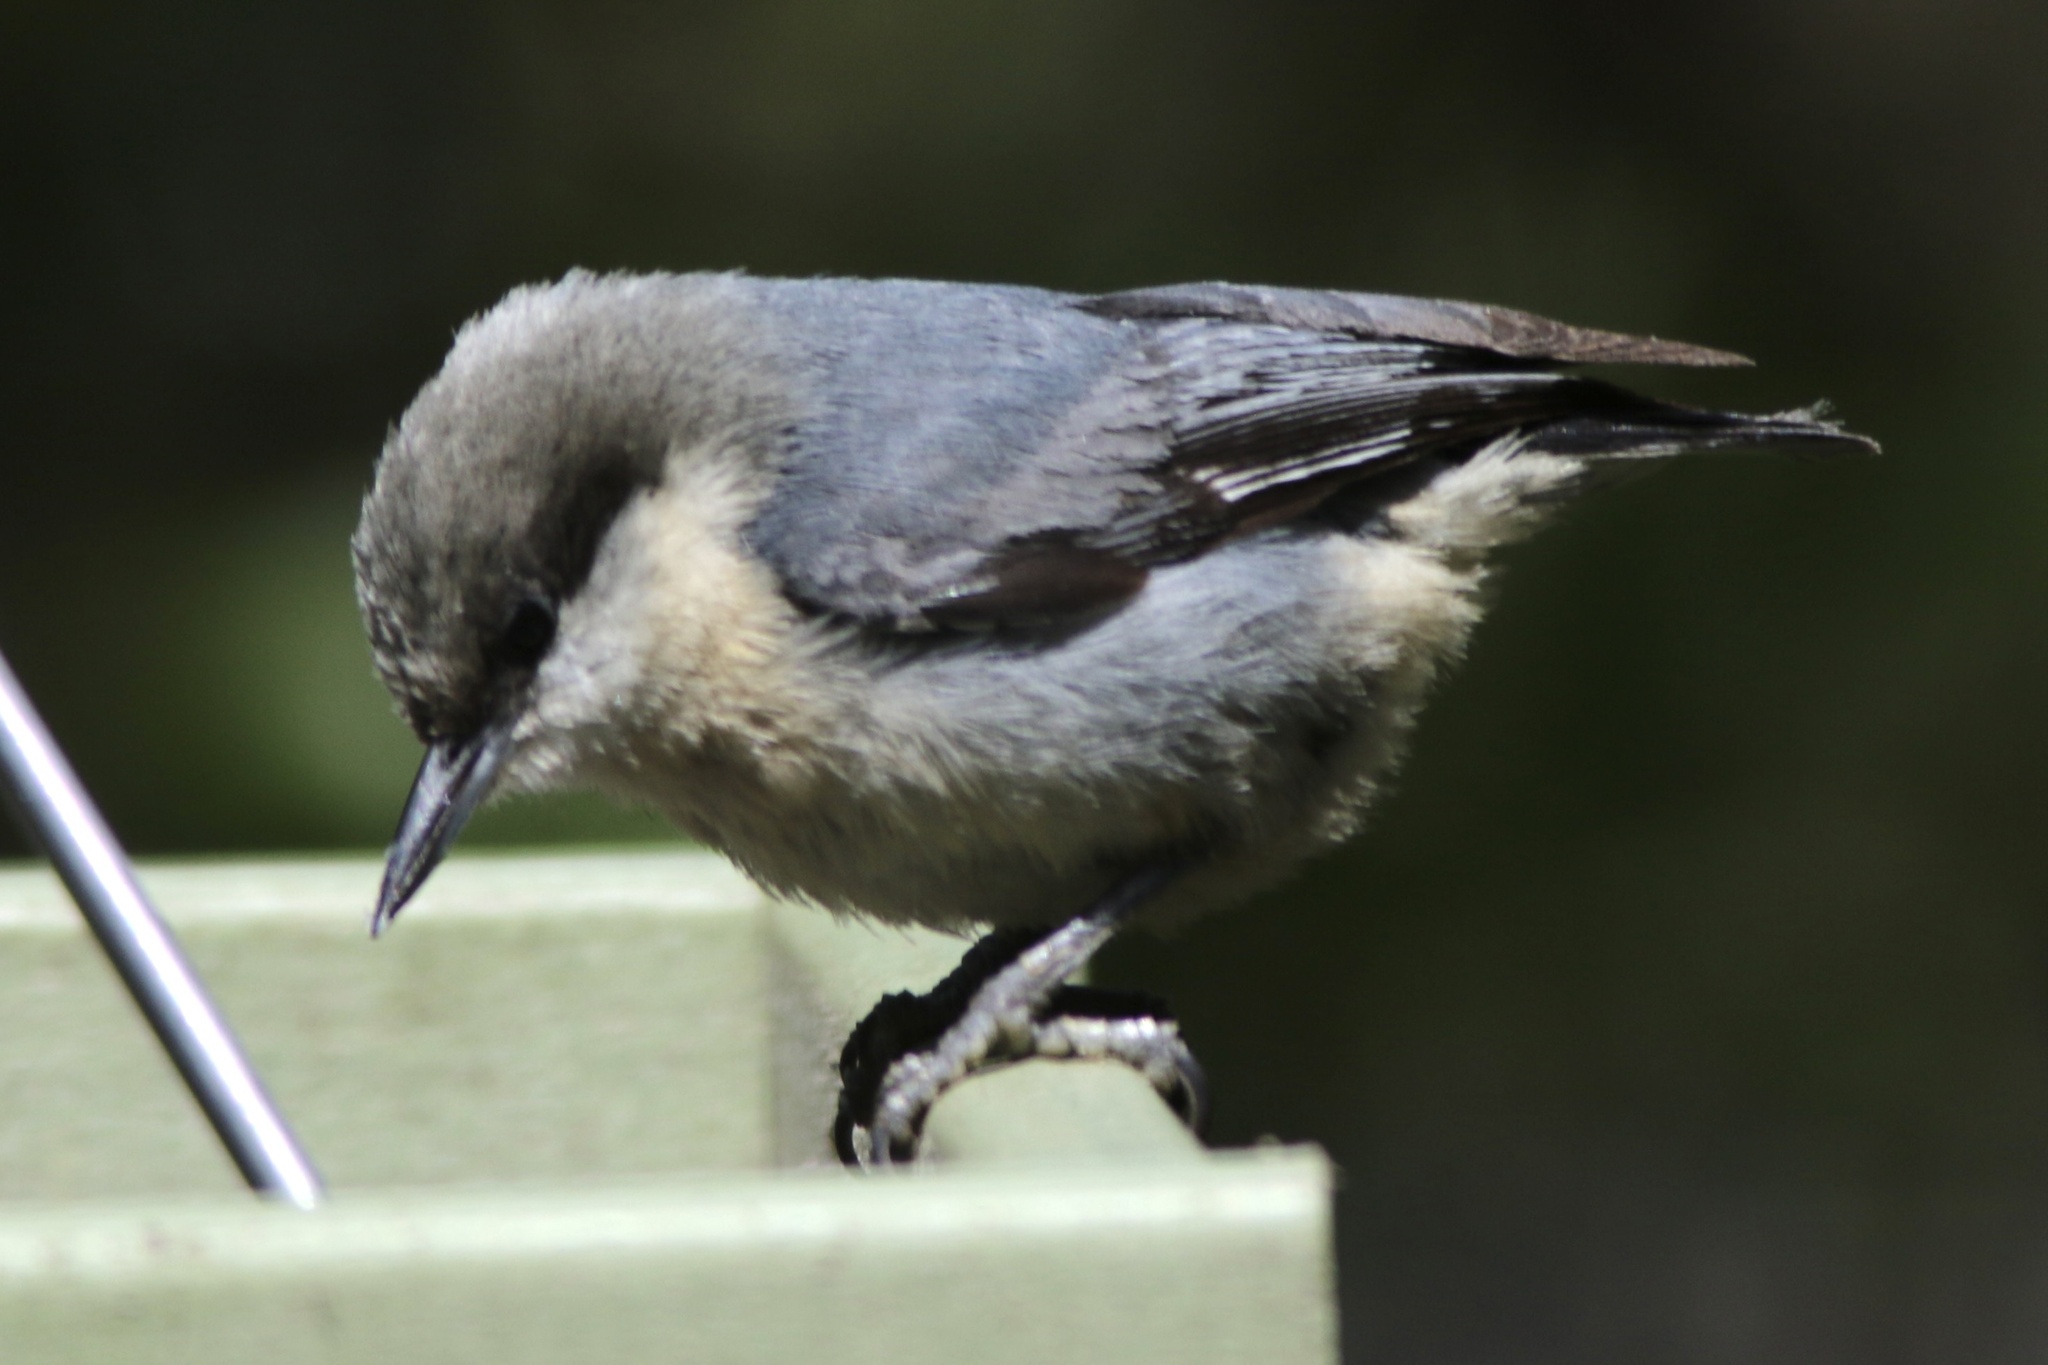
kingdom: Animalia
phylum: Chordata
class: Aves
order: Passeriformes
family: Sittidae
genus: Sitta
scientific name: Sitta pygmaea
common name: Pygmy nuthatch
